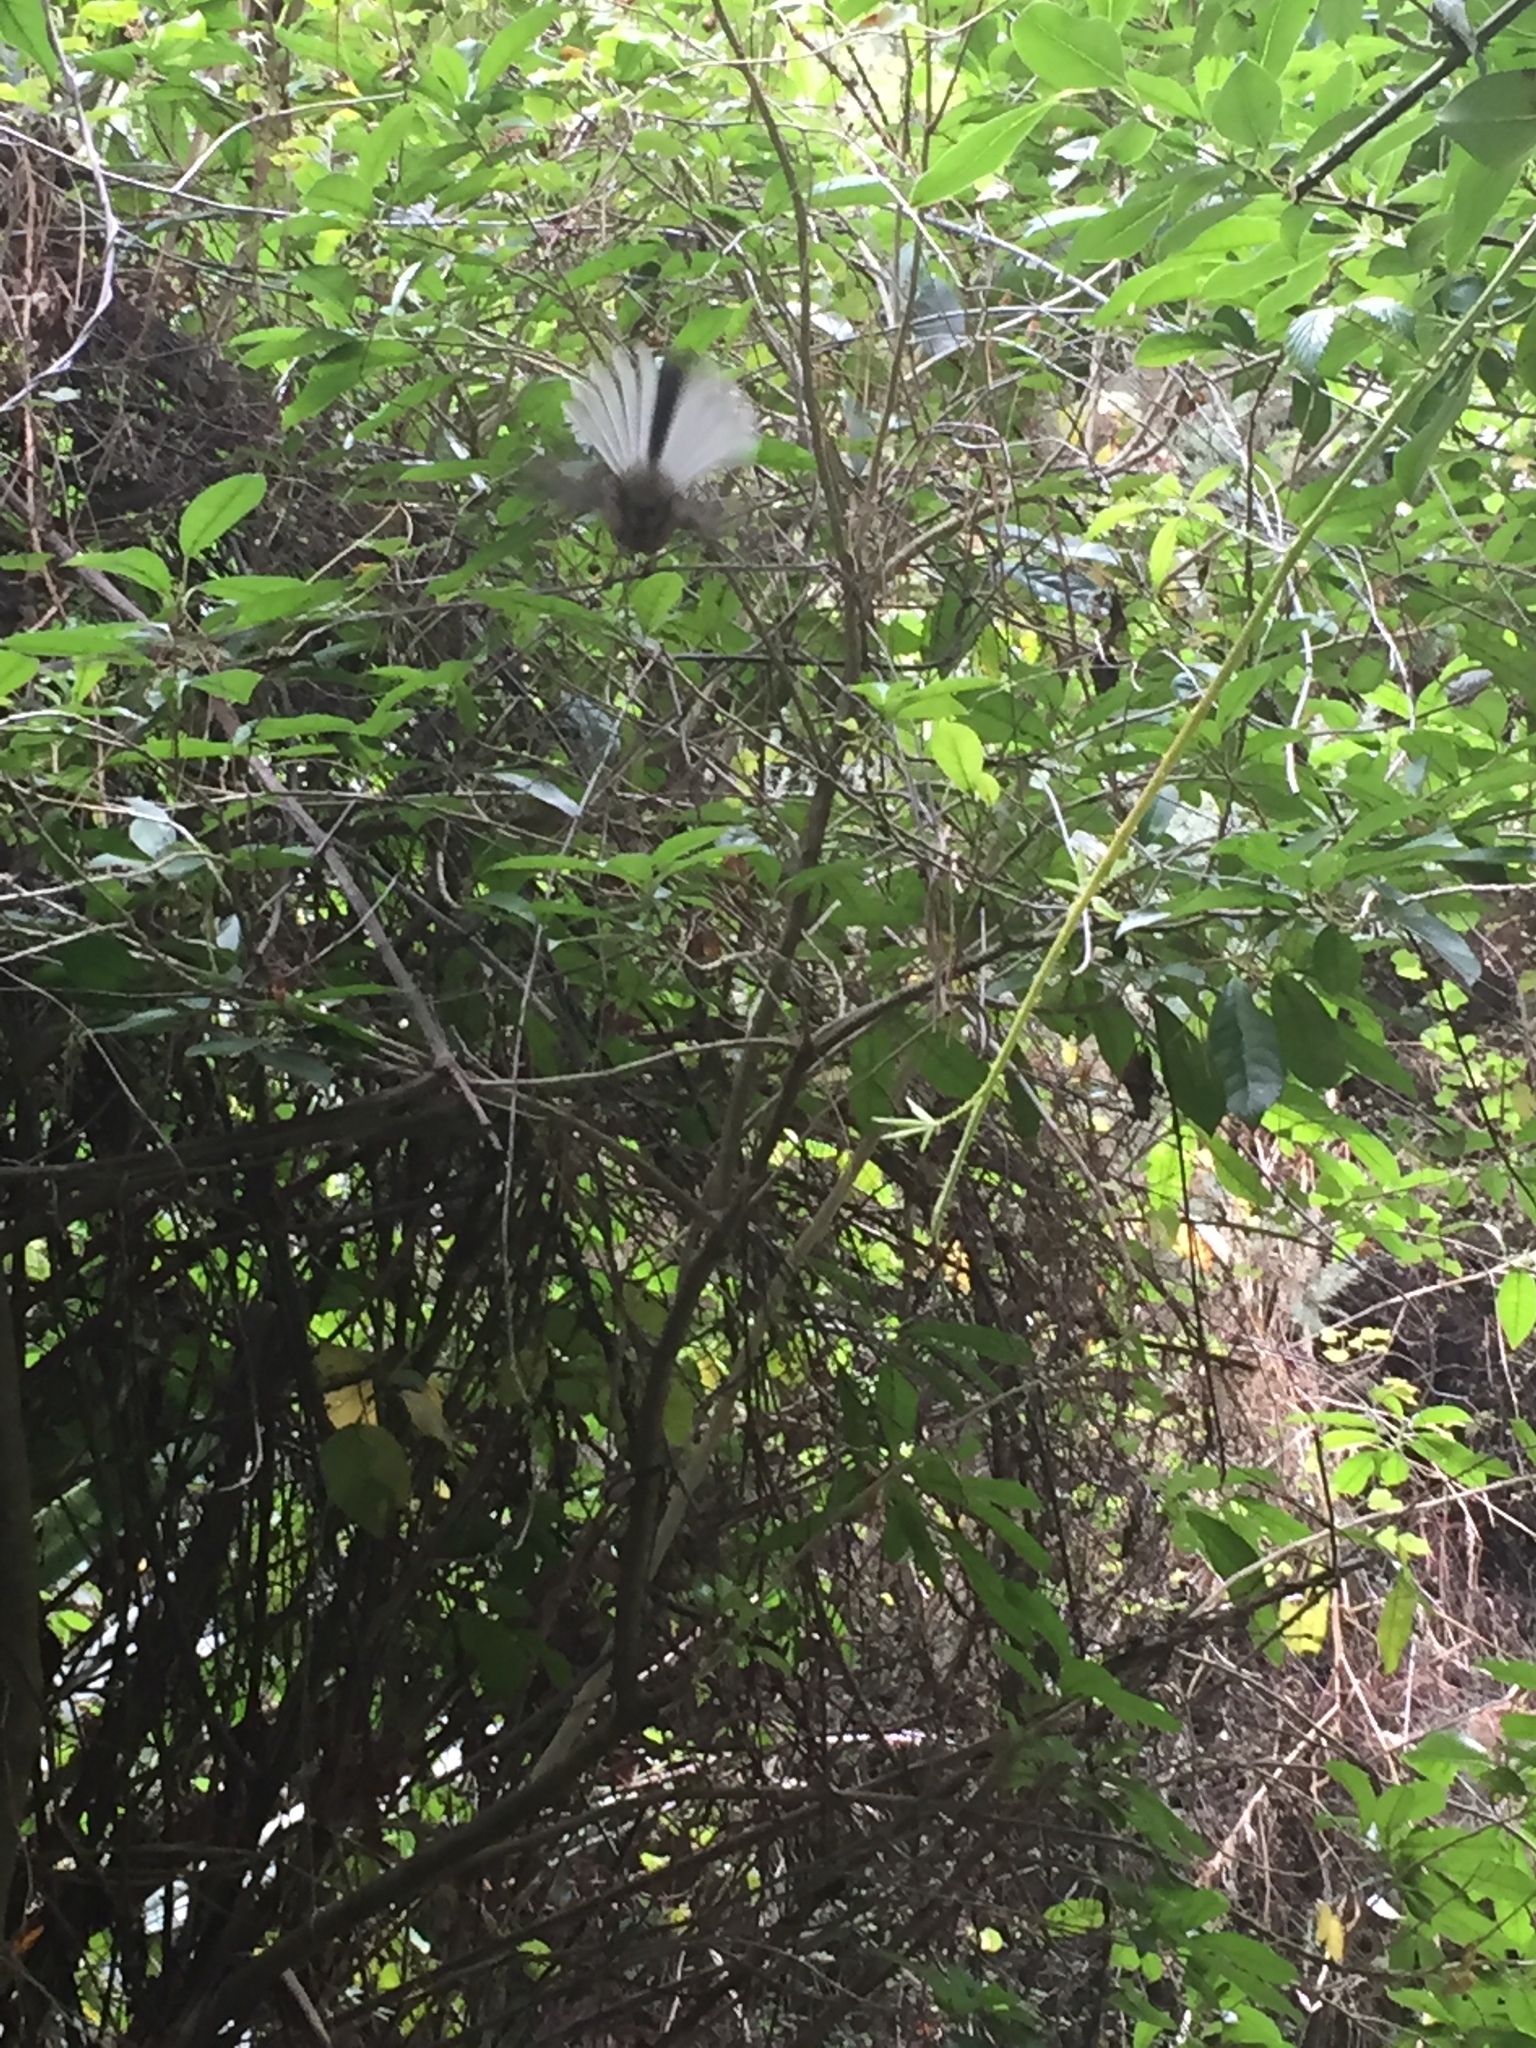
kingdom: Animalia
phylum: Chordata
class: Aves
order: Passeriformes
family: Rhipiduridae
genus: Rhipidura
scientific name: Rhipidura fuliginosa
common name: New zealand fantail
